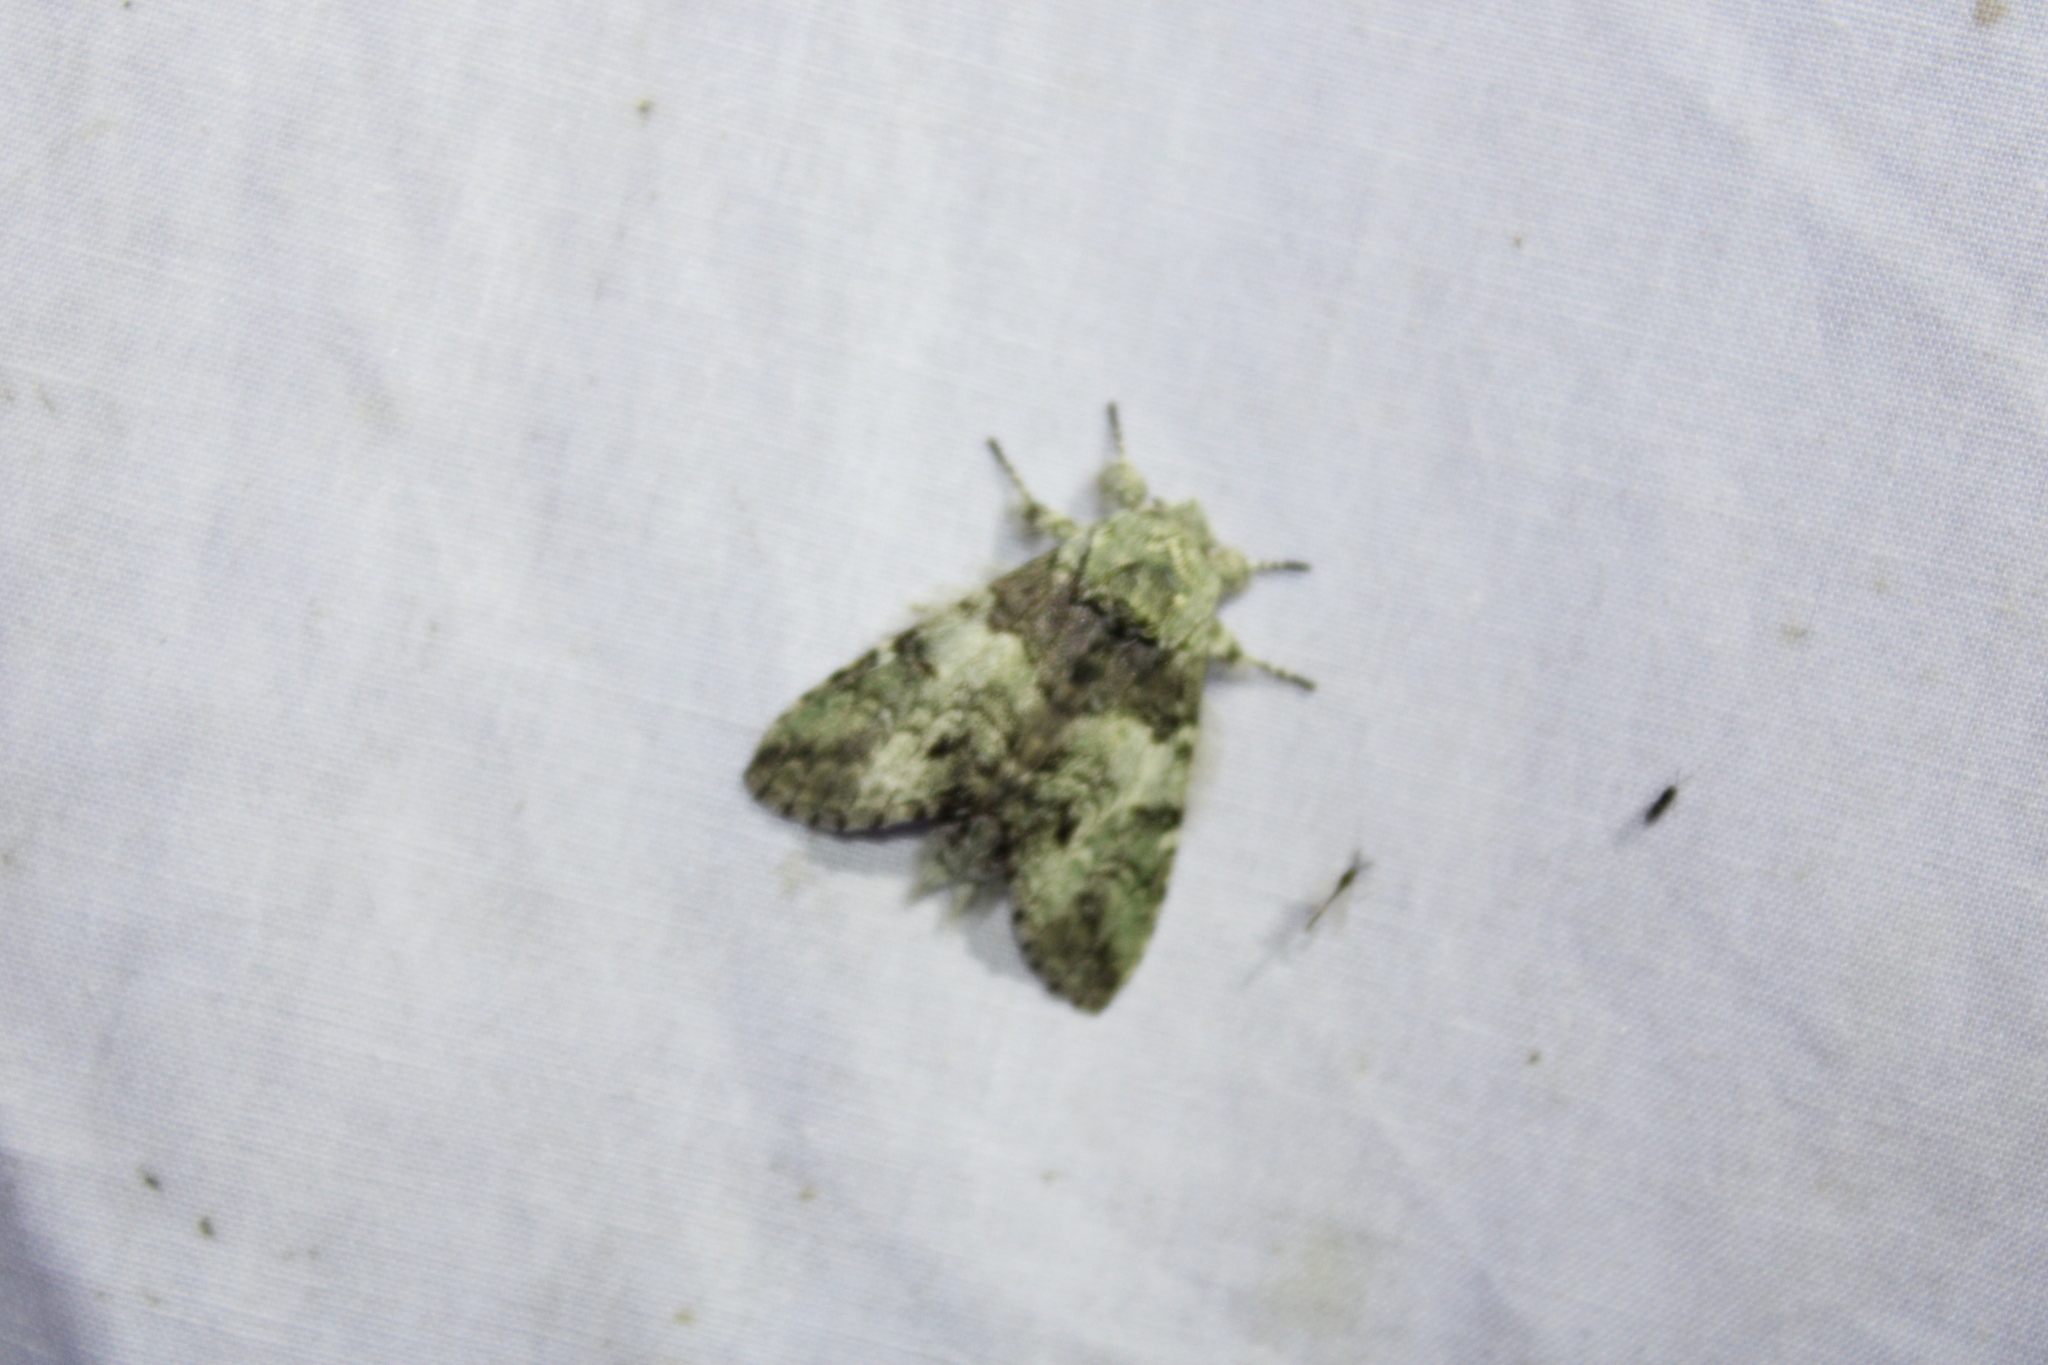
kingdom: Animalia
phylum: Arthropoda
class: Insecta
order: Lepidoptera
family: Notodontidae
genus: Macrurocampa
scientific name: Macrurocampa marthesia
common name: Mottled prominent
